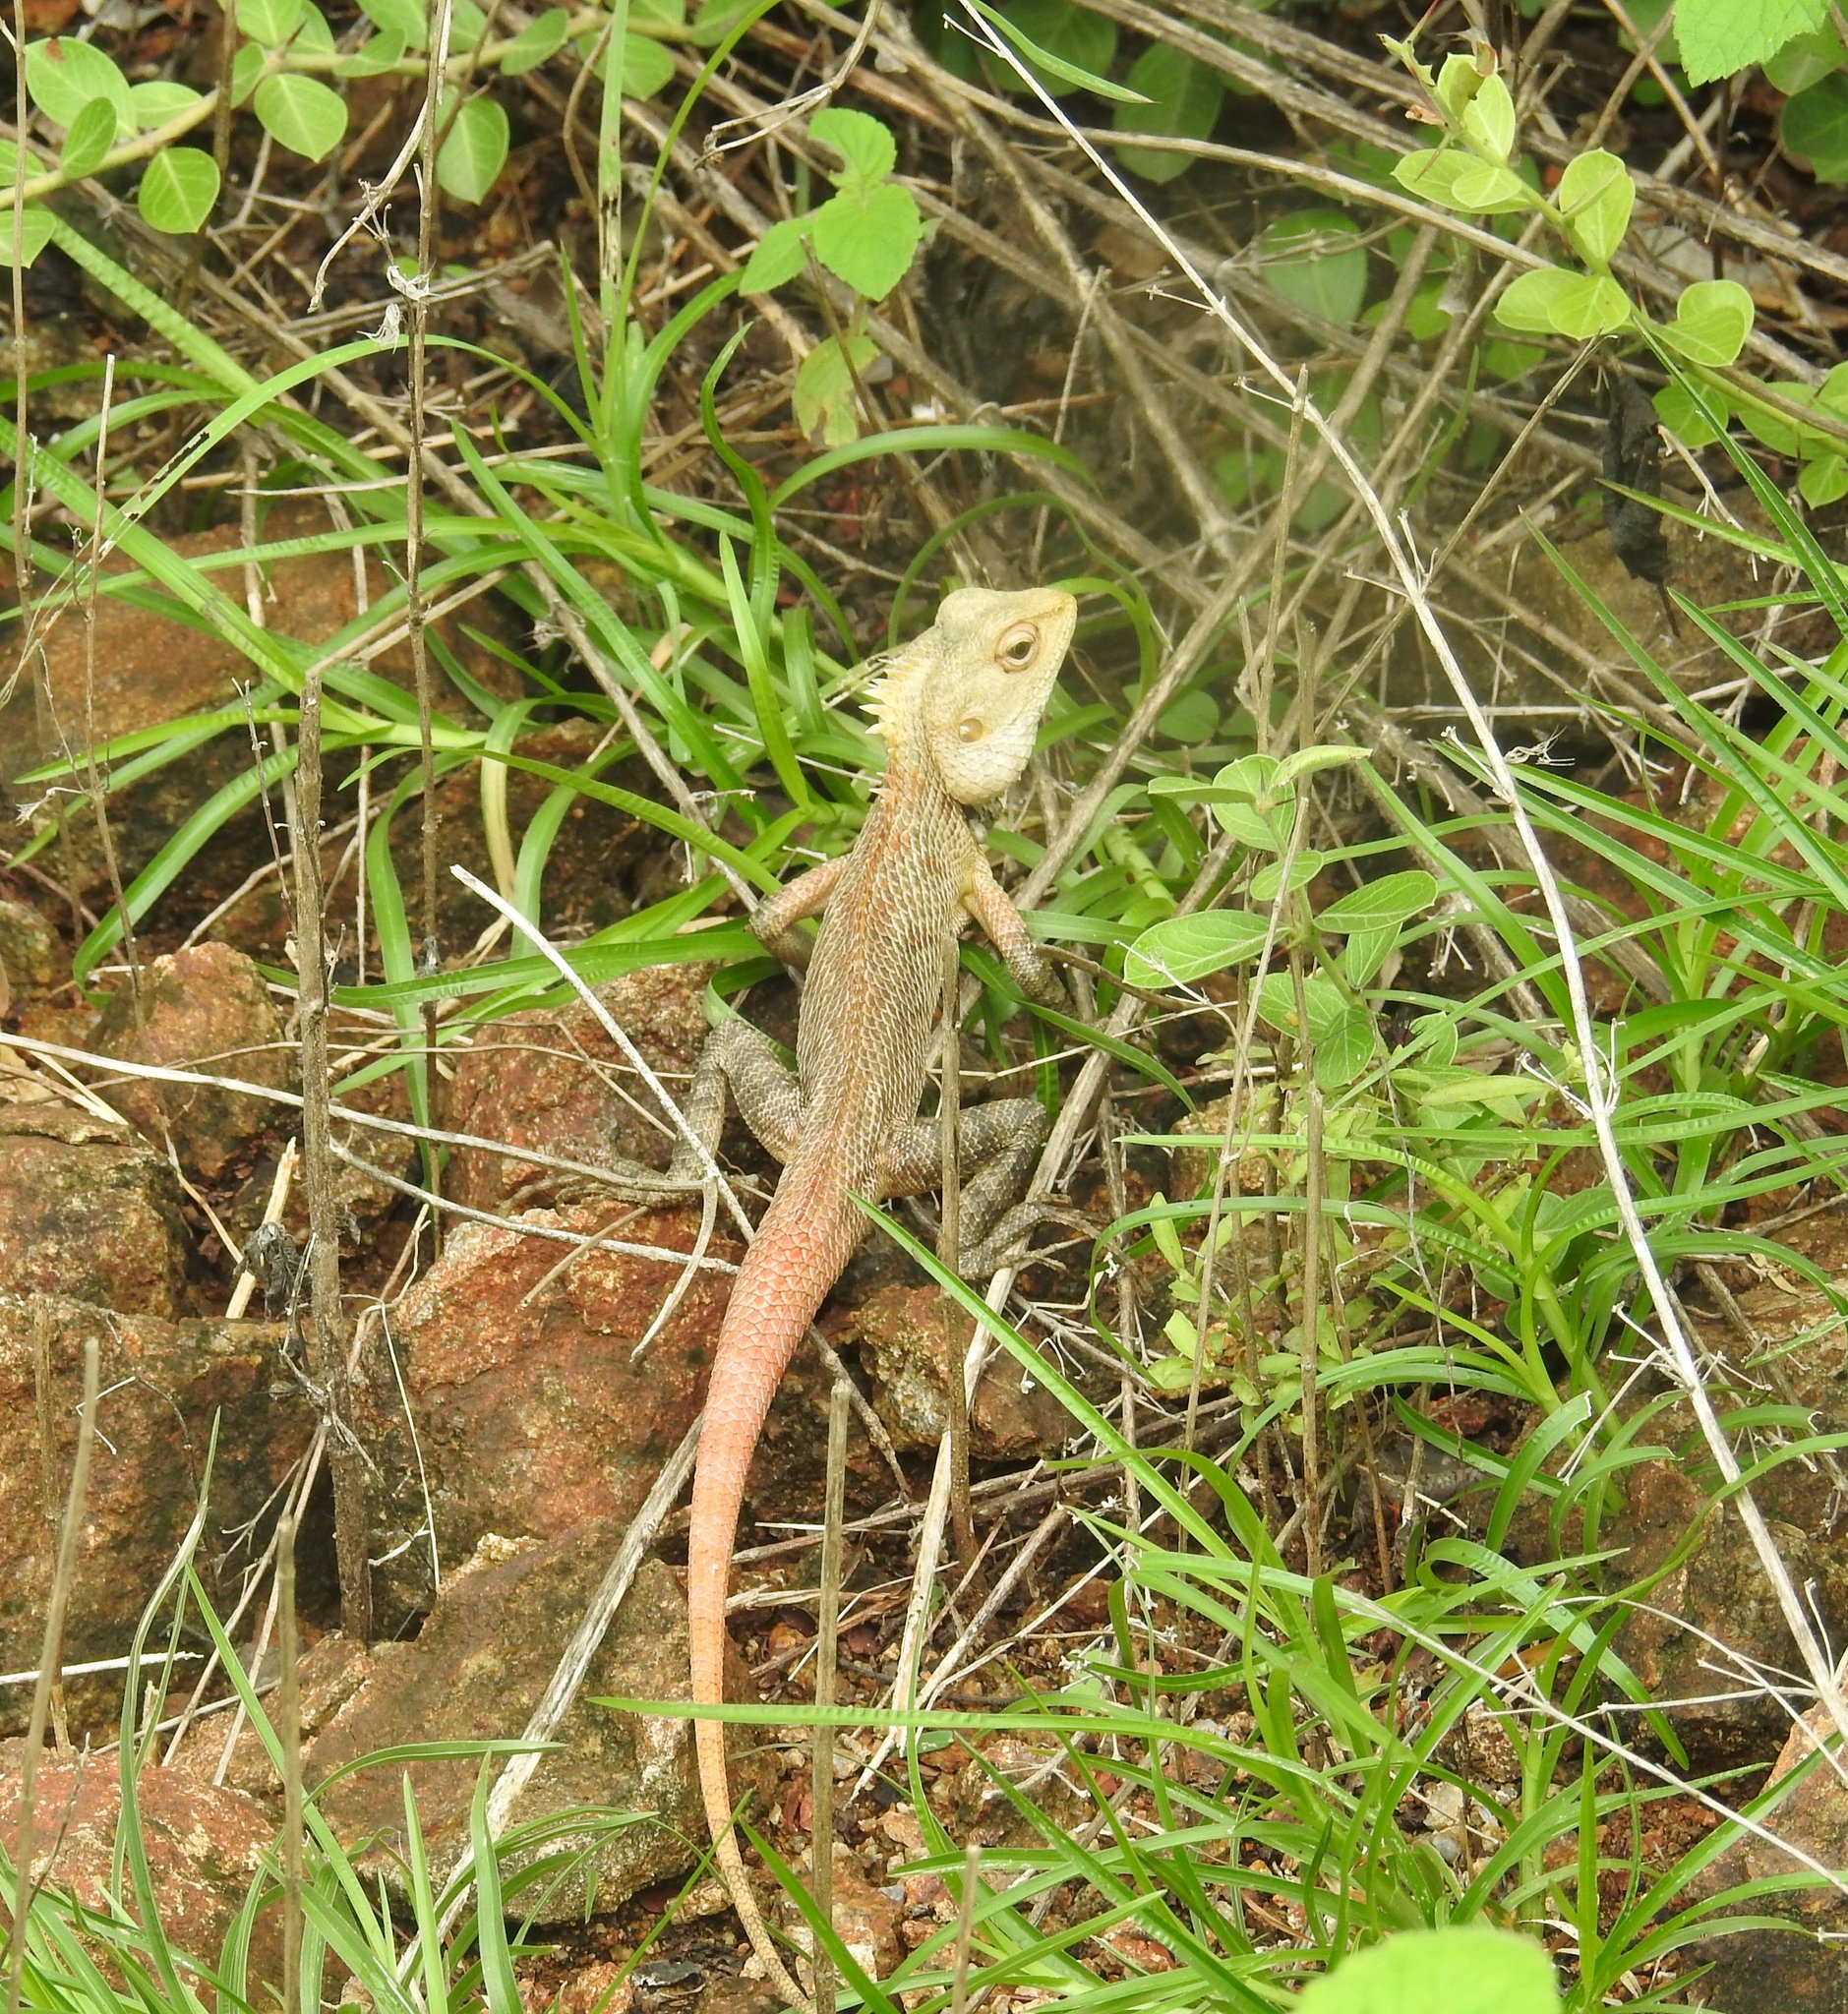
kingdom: Animalia
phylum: Chordata
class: Squamata
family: Agamidae
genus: Calotes
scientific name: Calotes versicolor
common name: Oriental garden lizard
